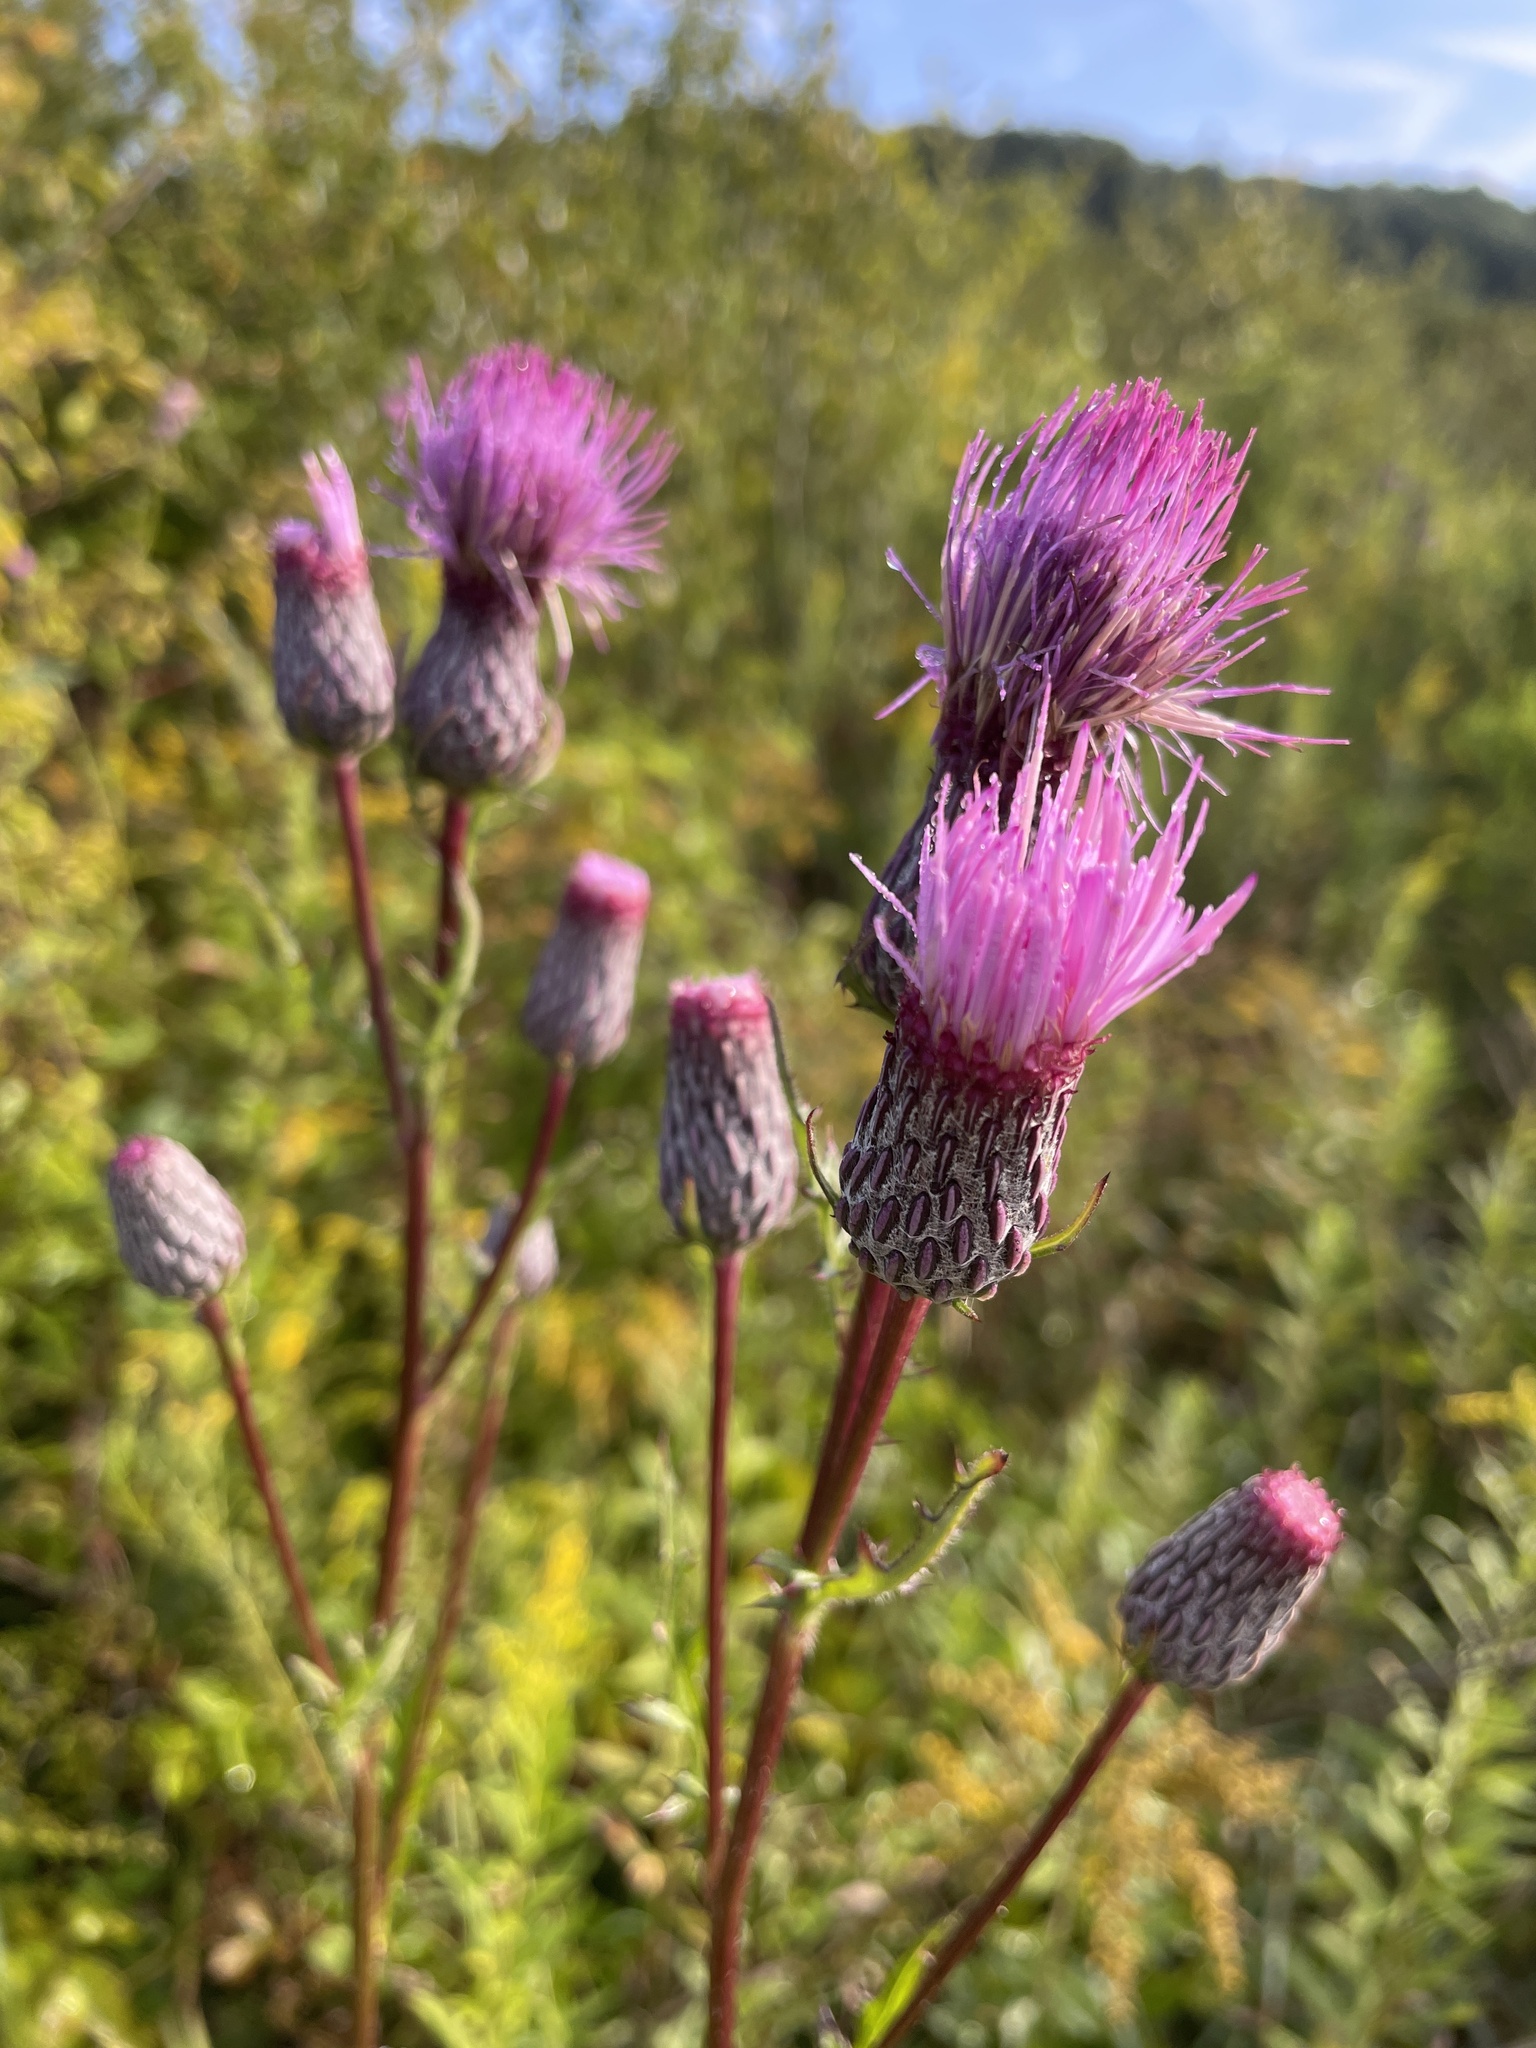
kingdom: Plantae
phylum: Tracheophyta
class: Magnoliopsida
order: Asterales
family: Asteraceae
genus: Cirsium
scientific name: Cirsium muticum
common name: Dunce-nettle
